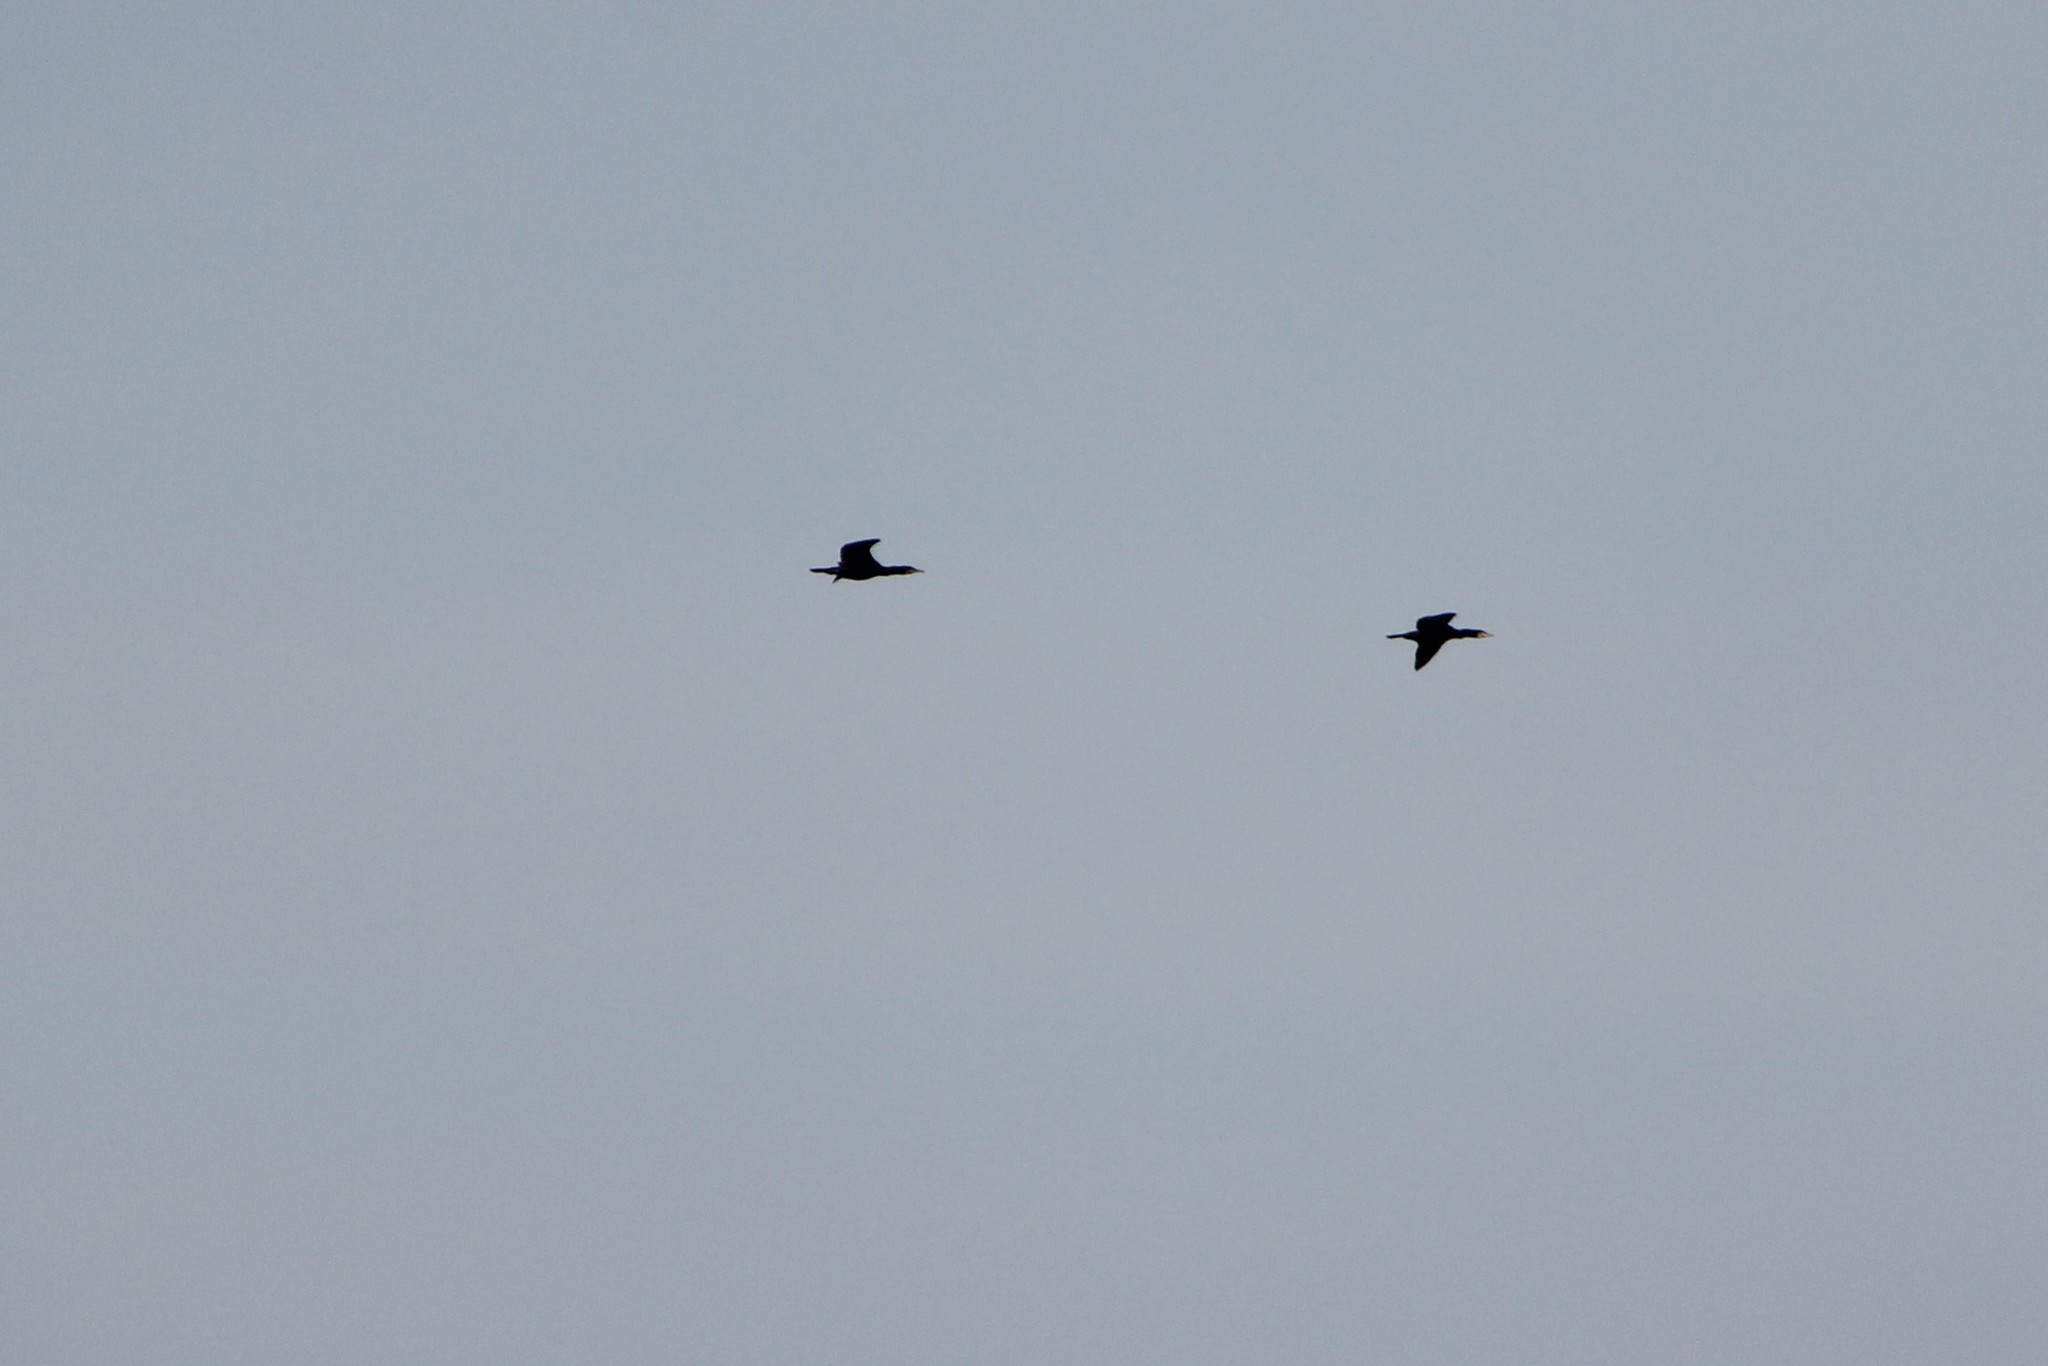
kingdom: Animalia
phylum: Chordata
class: Aves
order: Suliformes
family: Phalacrocoracidae
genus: Phalacrocorax
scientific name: Phalacrocorax carbo
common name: Great cormorant
